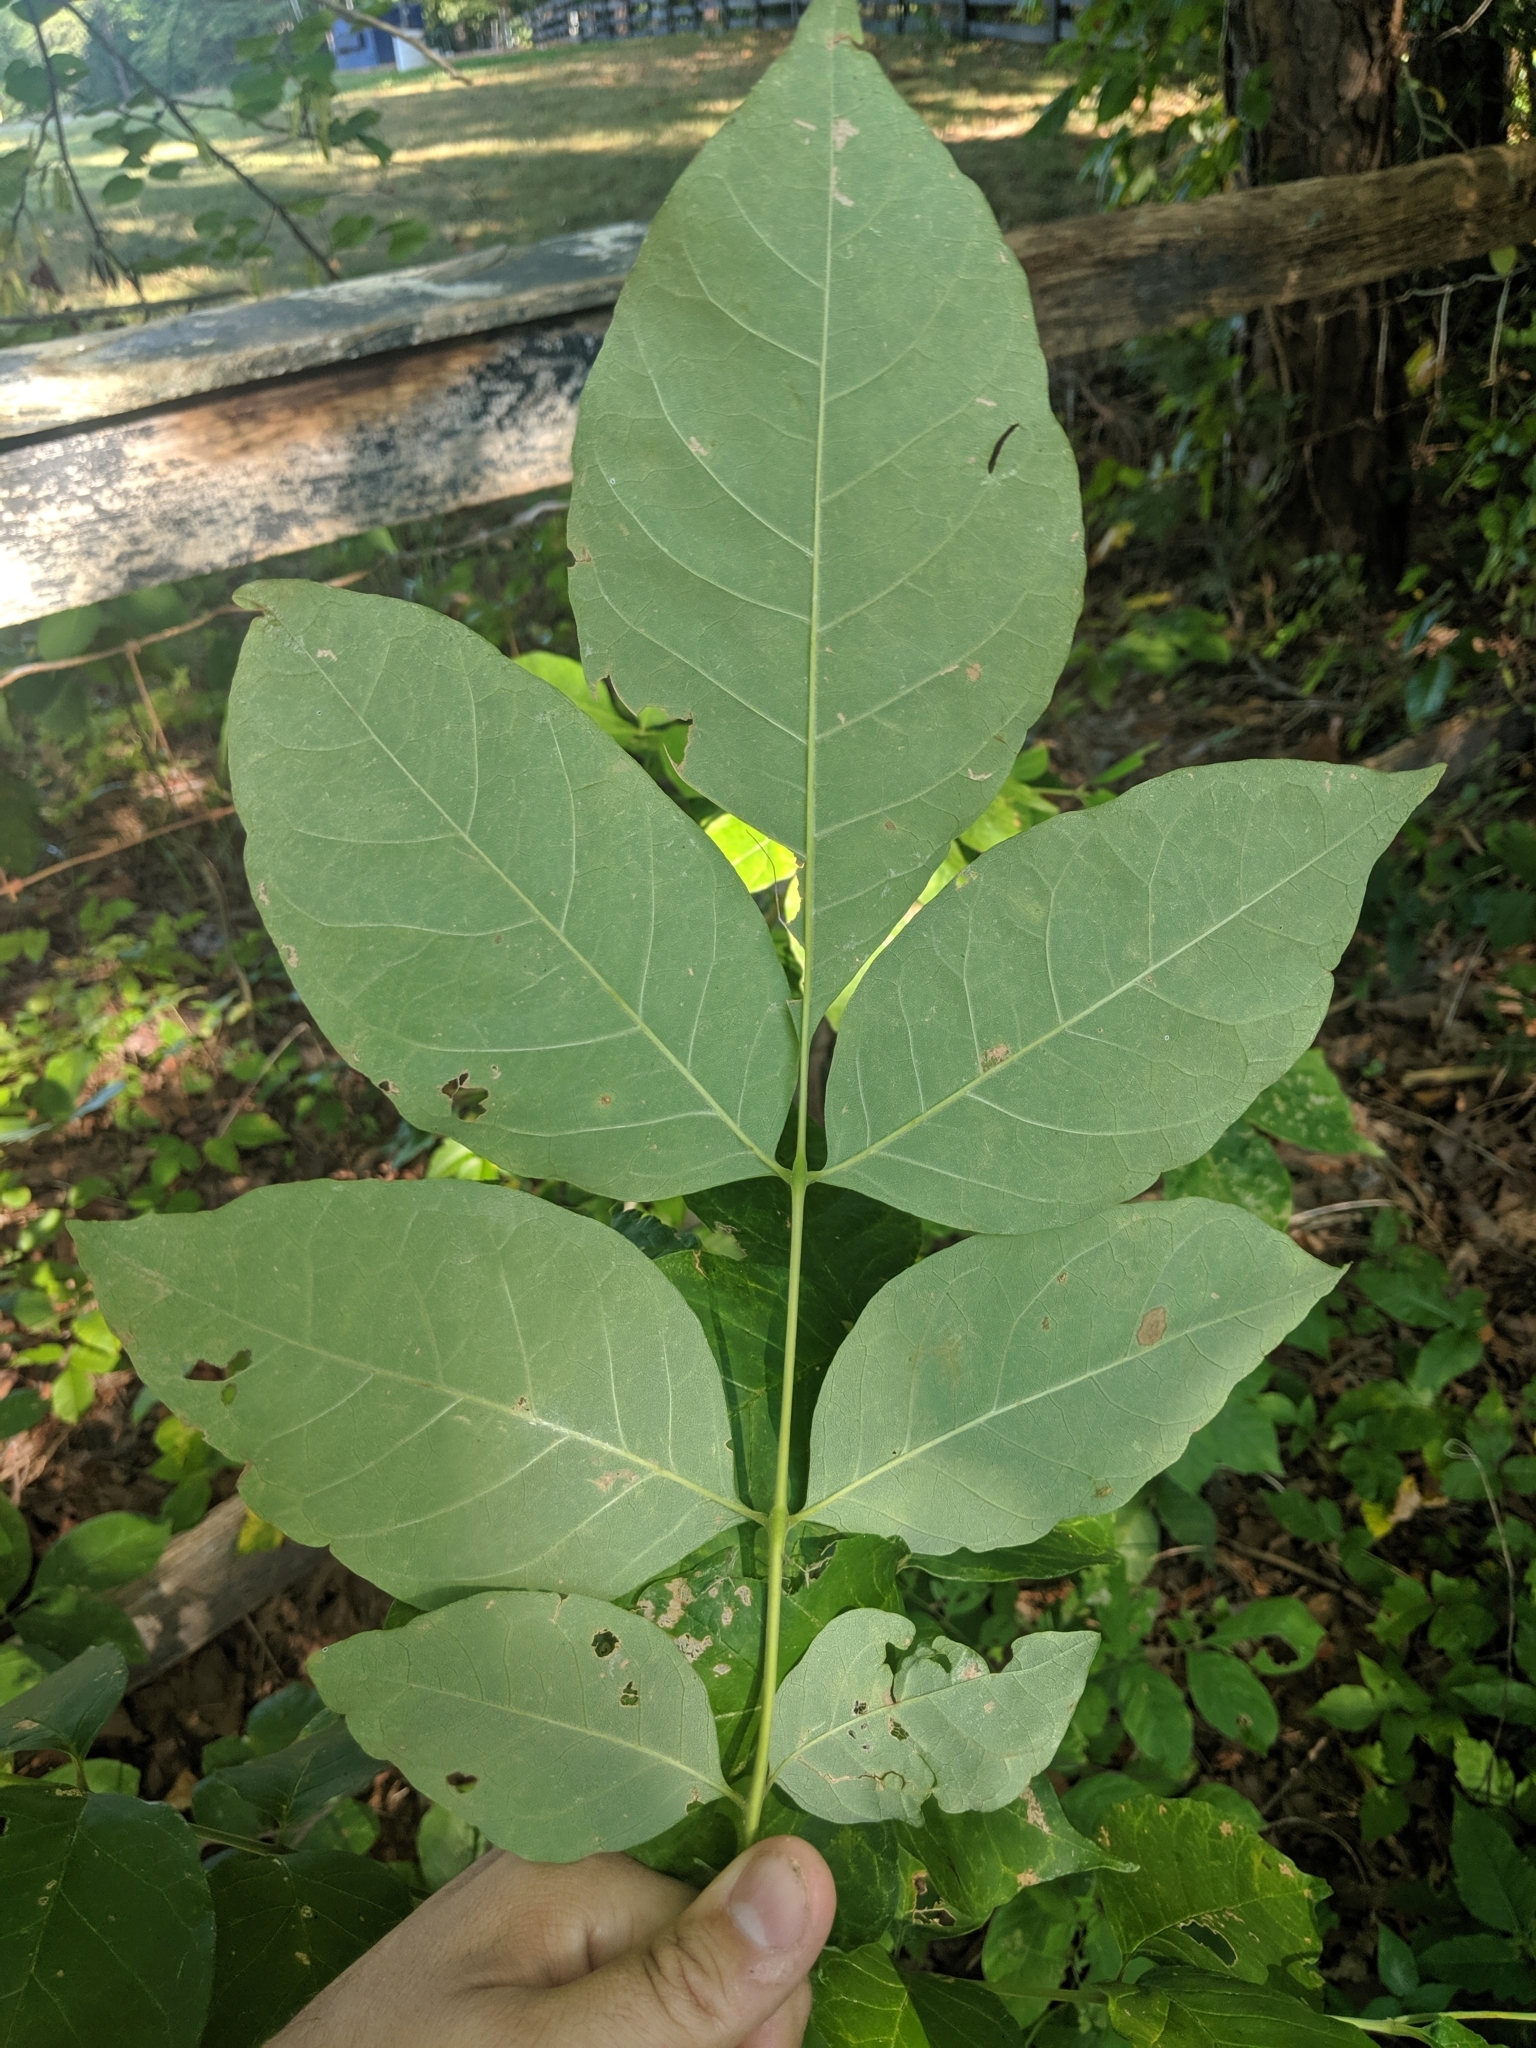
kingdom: Plantae
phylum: Tracheophyta
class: Magnoliopsida
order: Lamiales
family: Oleaceae
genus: Fraxinus
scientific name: Fraxinus americana
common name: White ash
